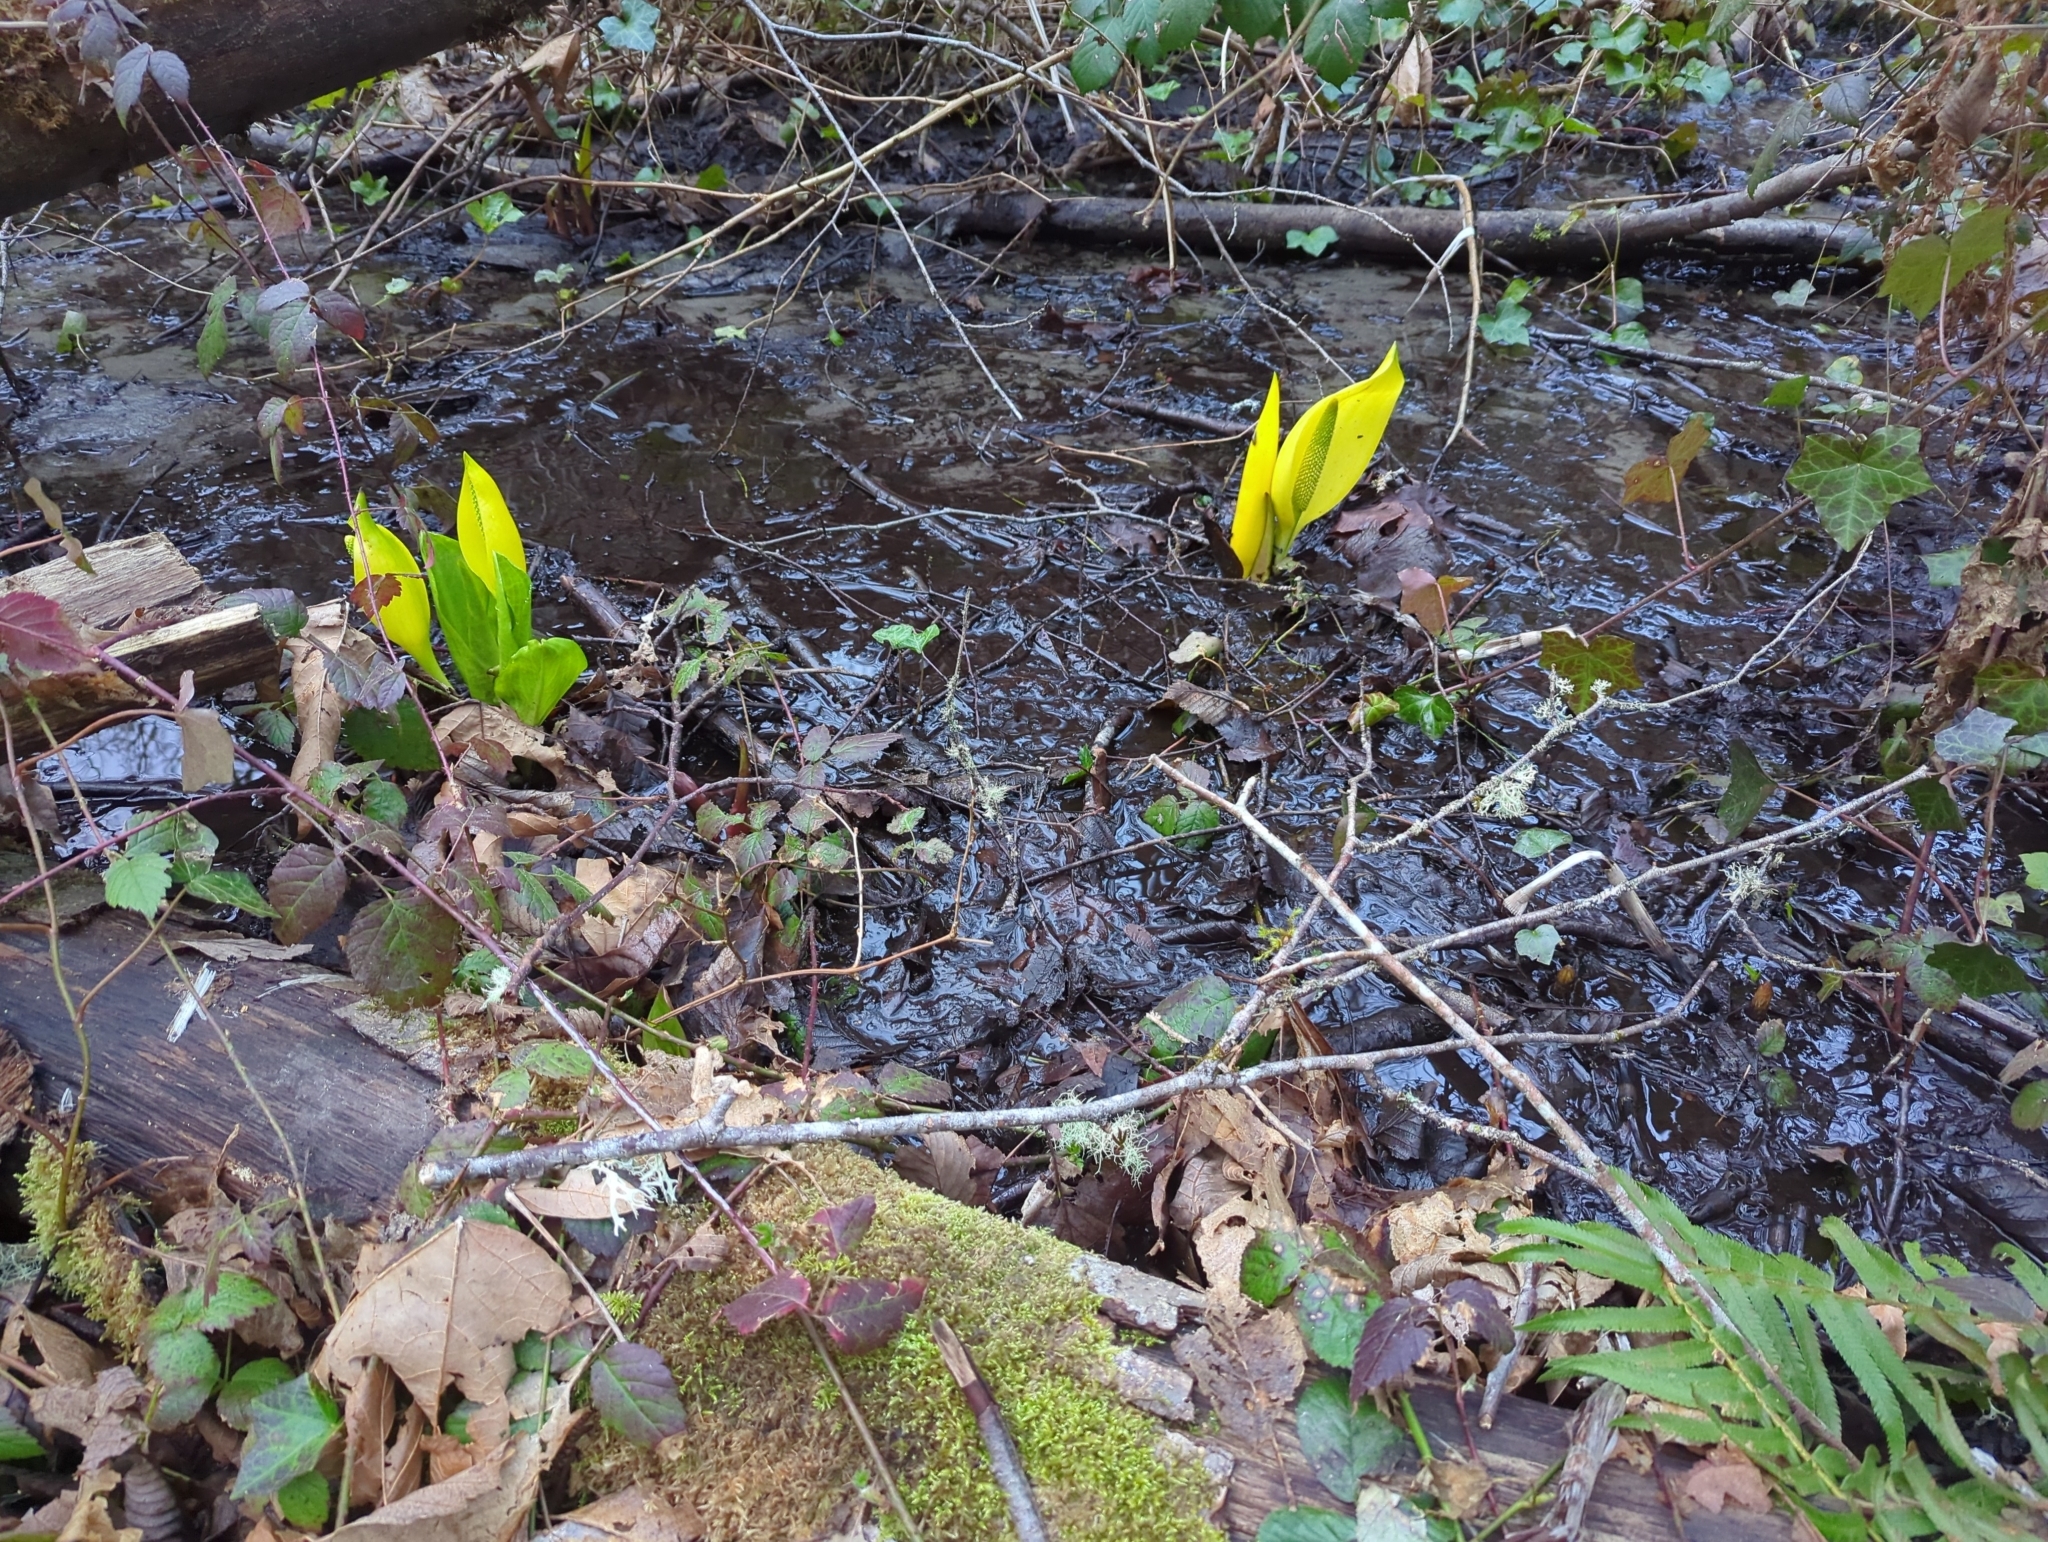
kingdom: Plantae
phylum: Tracheophyta
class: Liliopsida
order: Alismatales
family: Araceae
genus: Lysichiton
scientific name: Lysichiton americanus
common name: American skunk cabbage
